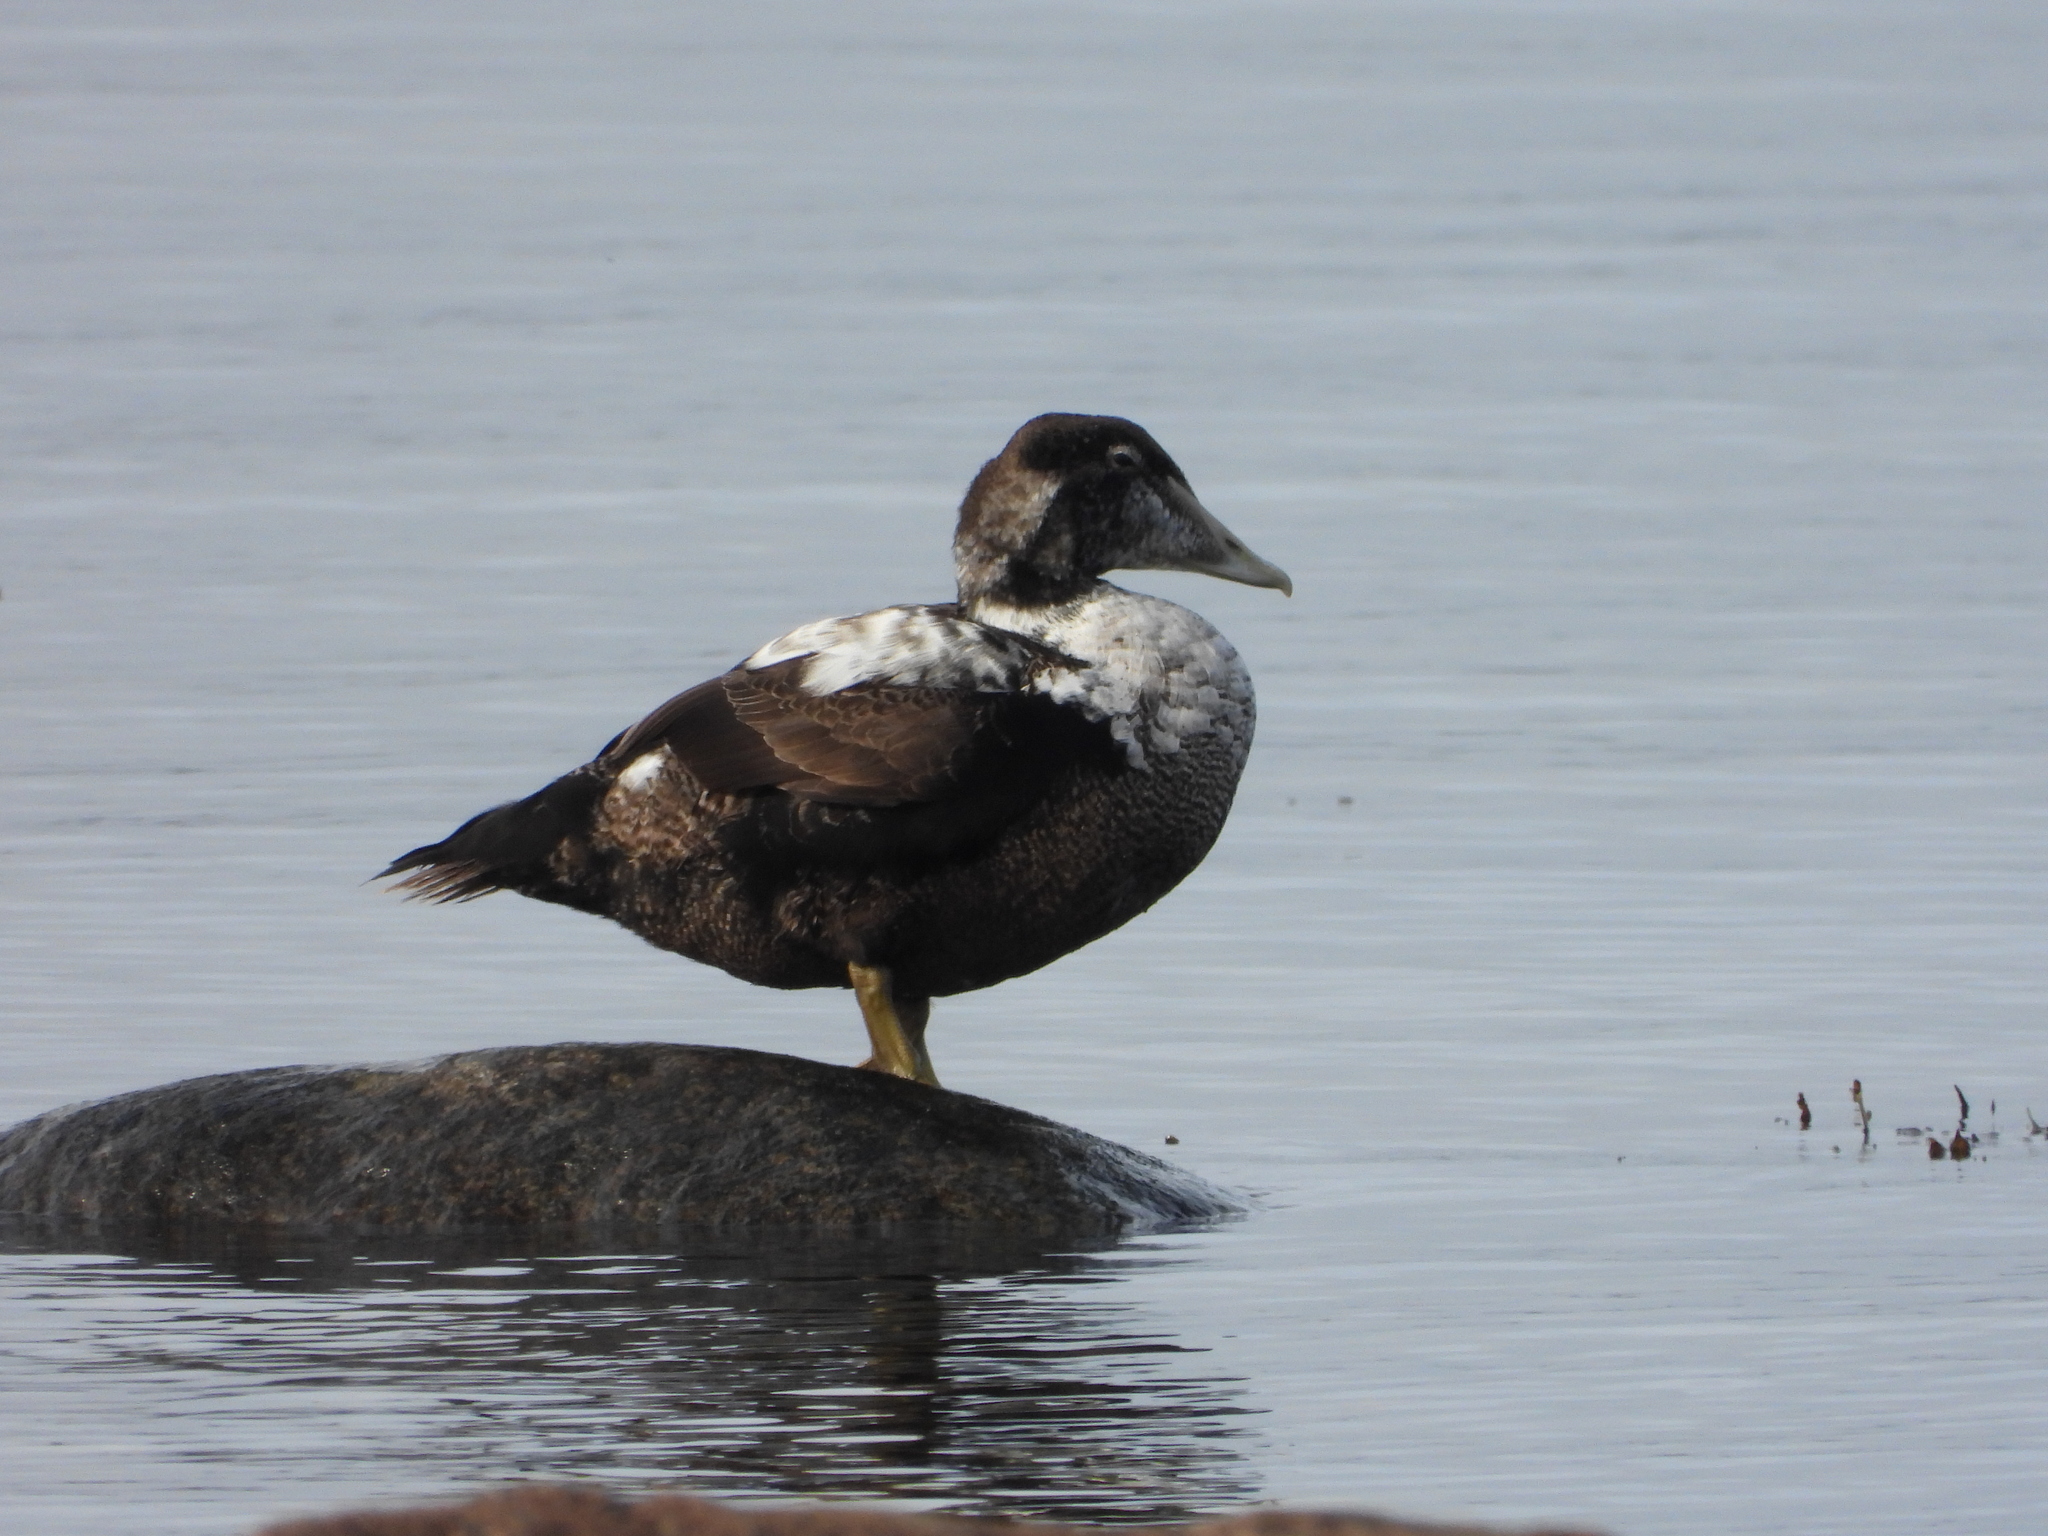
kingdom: Animalia
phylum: Chordata
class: Aves
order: Anseriformes
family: Anatidae
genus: Somateria
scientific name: Somateria mollissima
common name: Common eider
